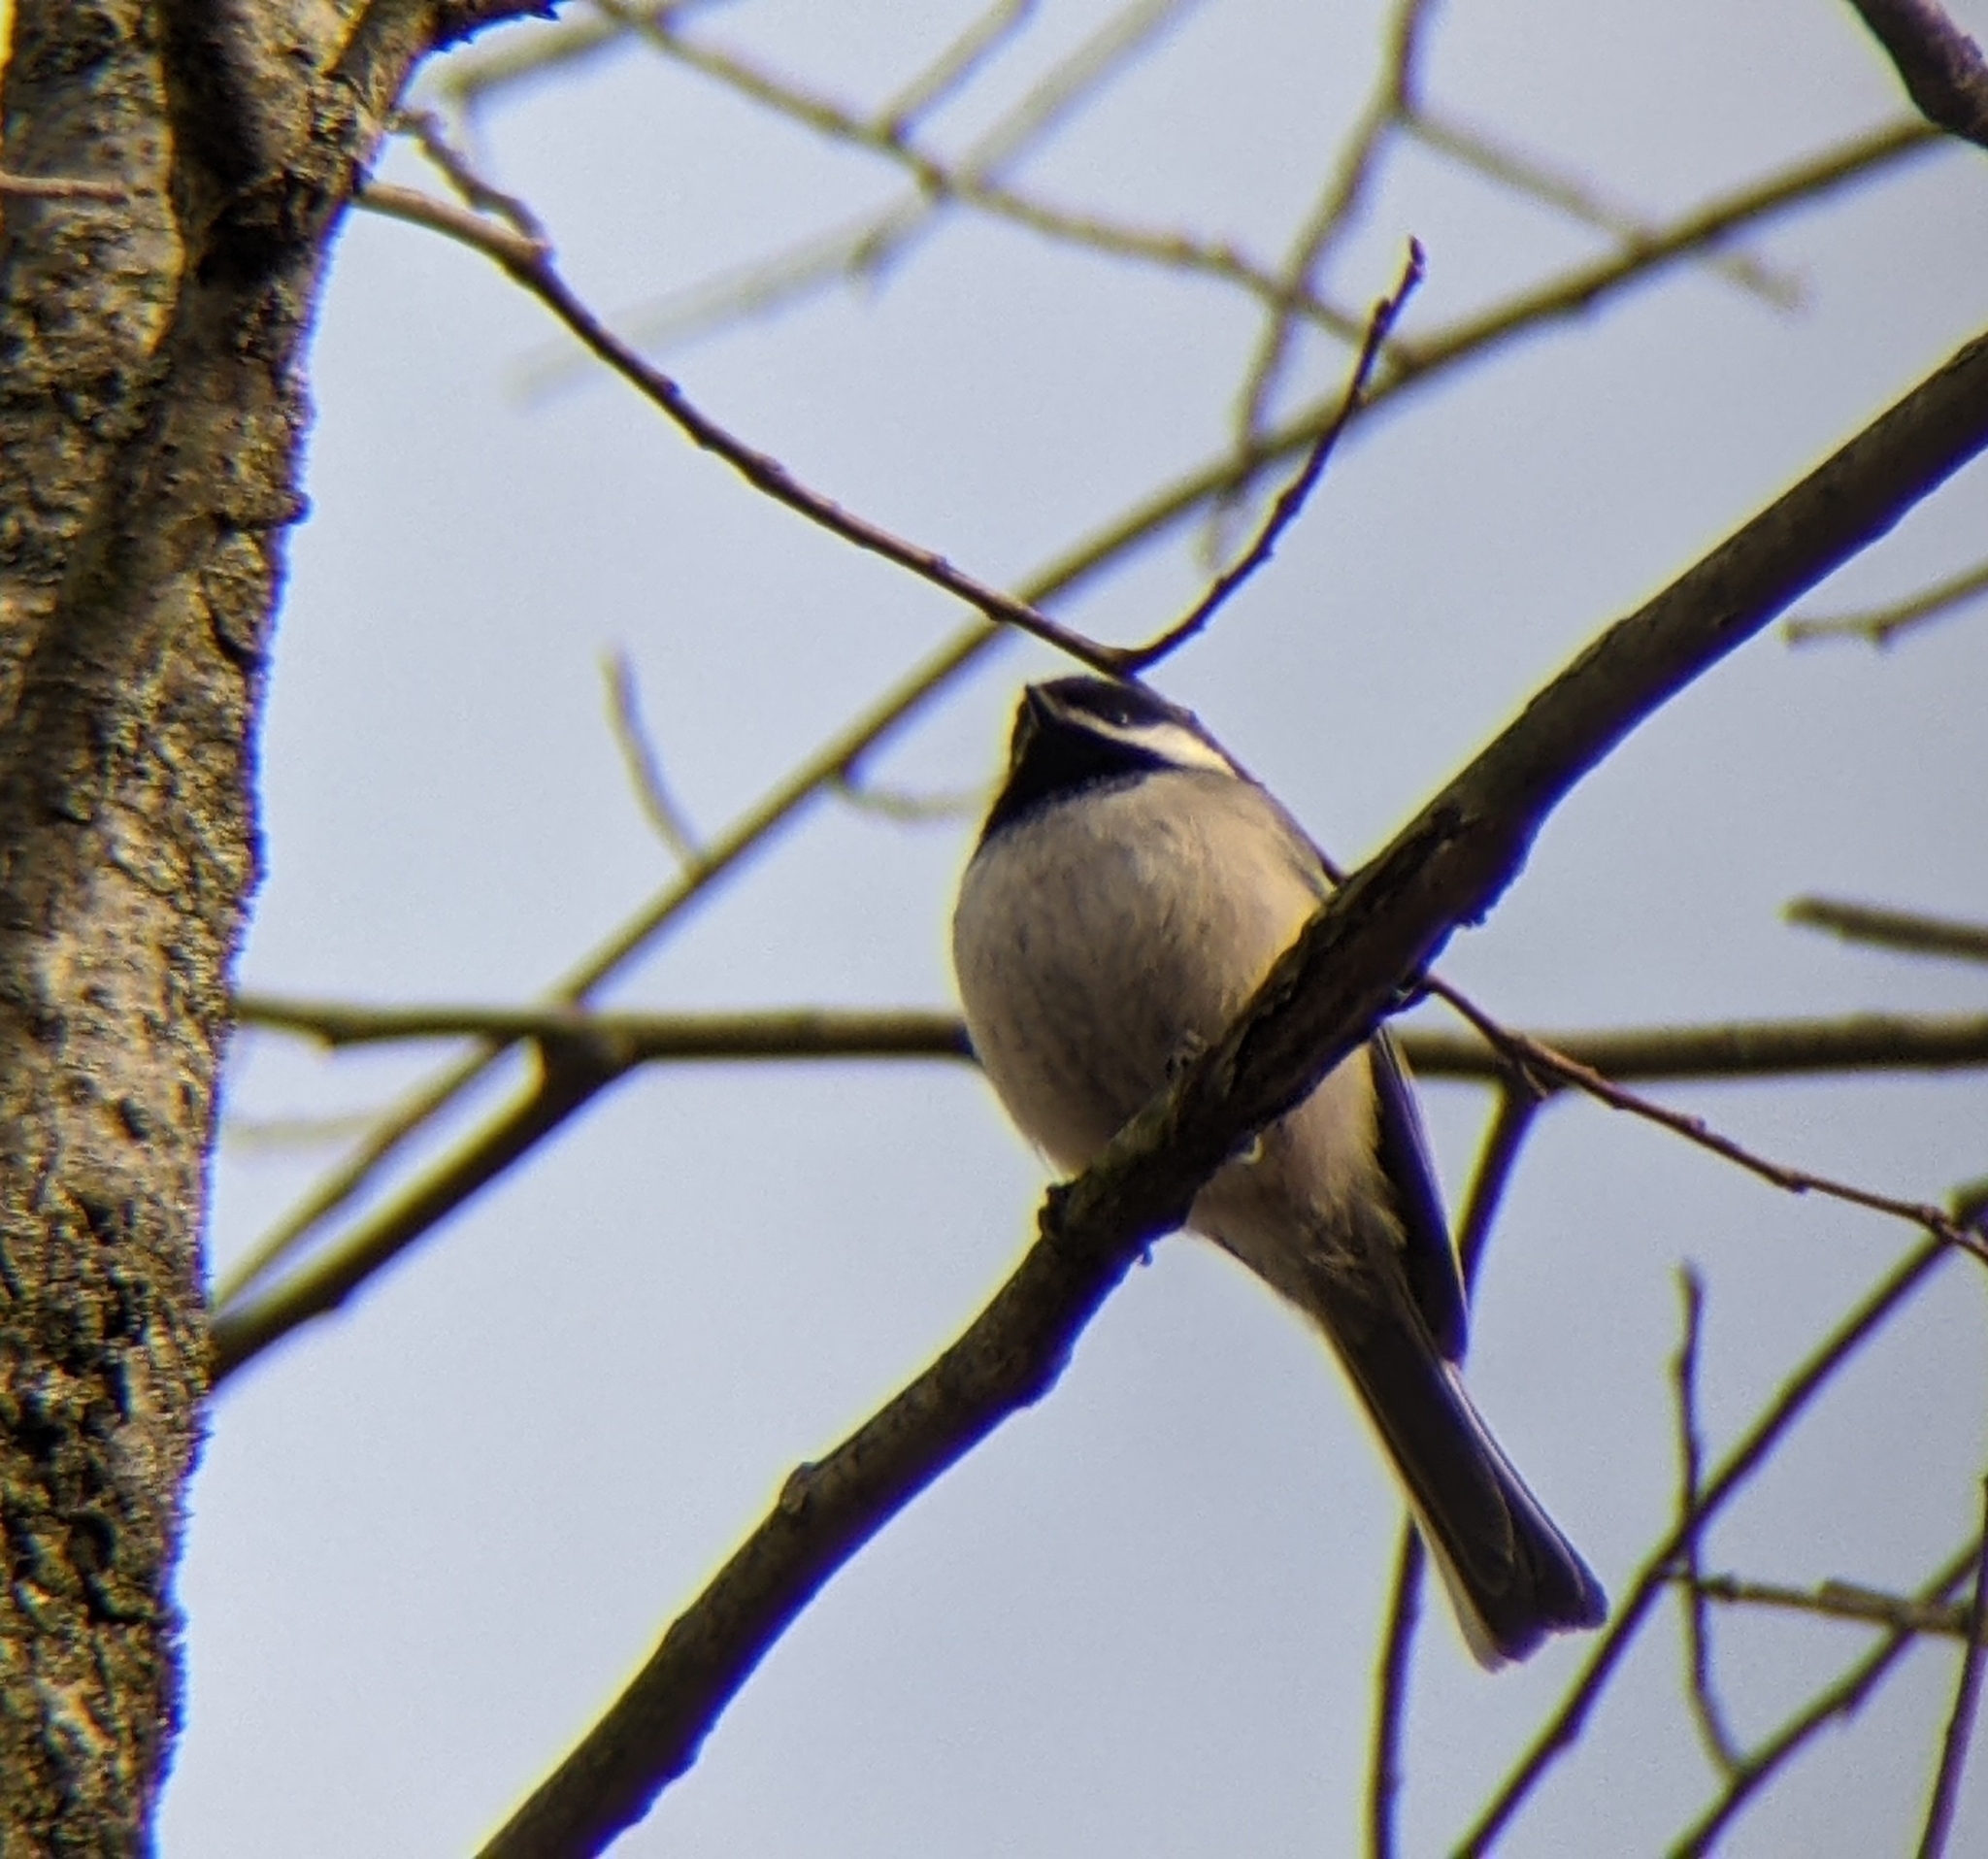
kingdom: Animalia
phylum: Chordata
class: Aves
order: Passeriformes
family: Paridae
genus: Poecile
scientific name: Poecile atricapillus
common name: Black-capped chickadee
